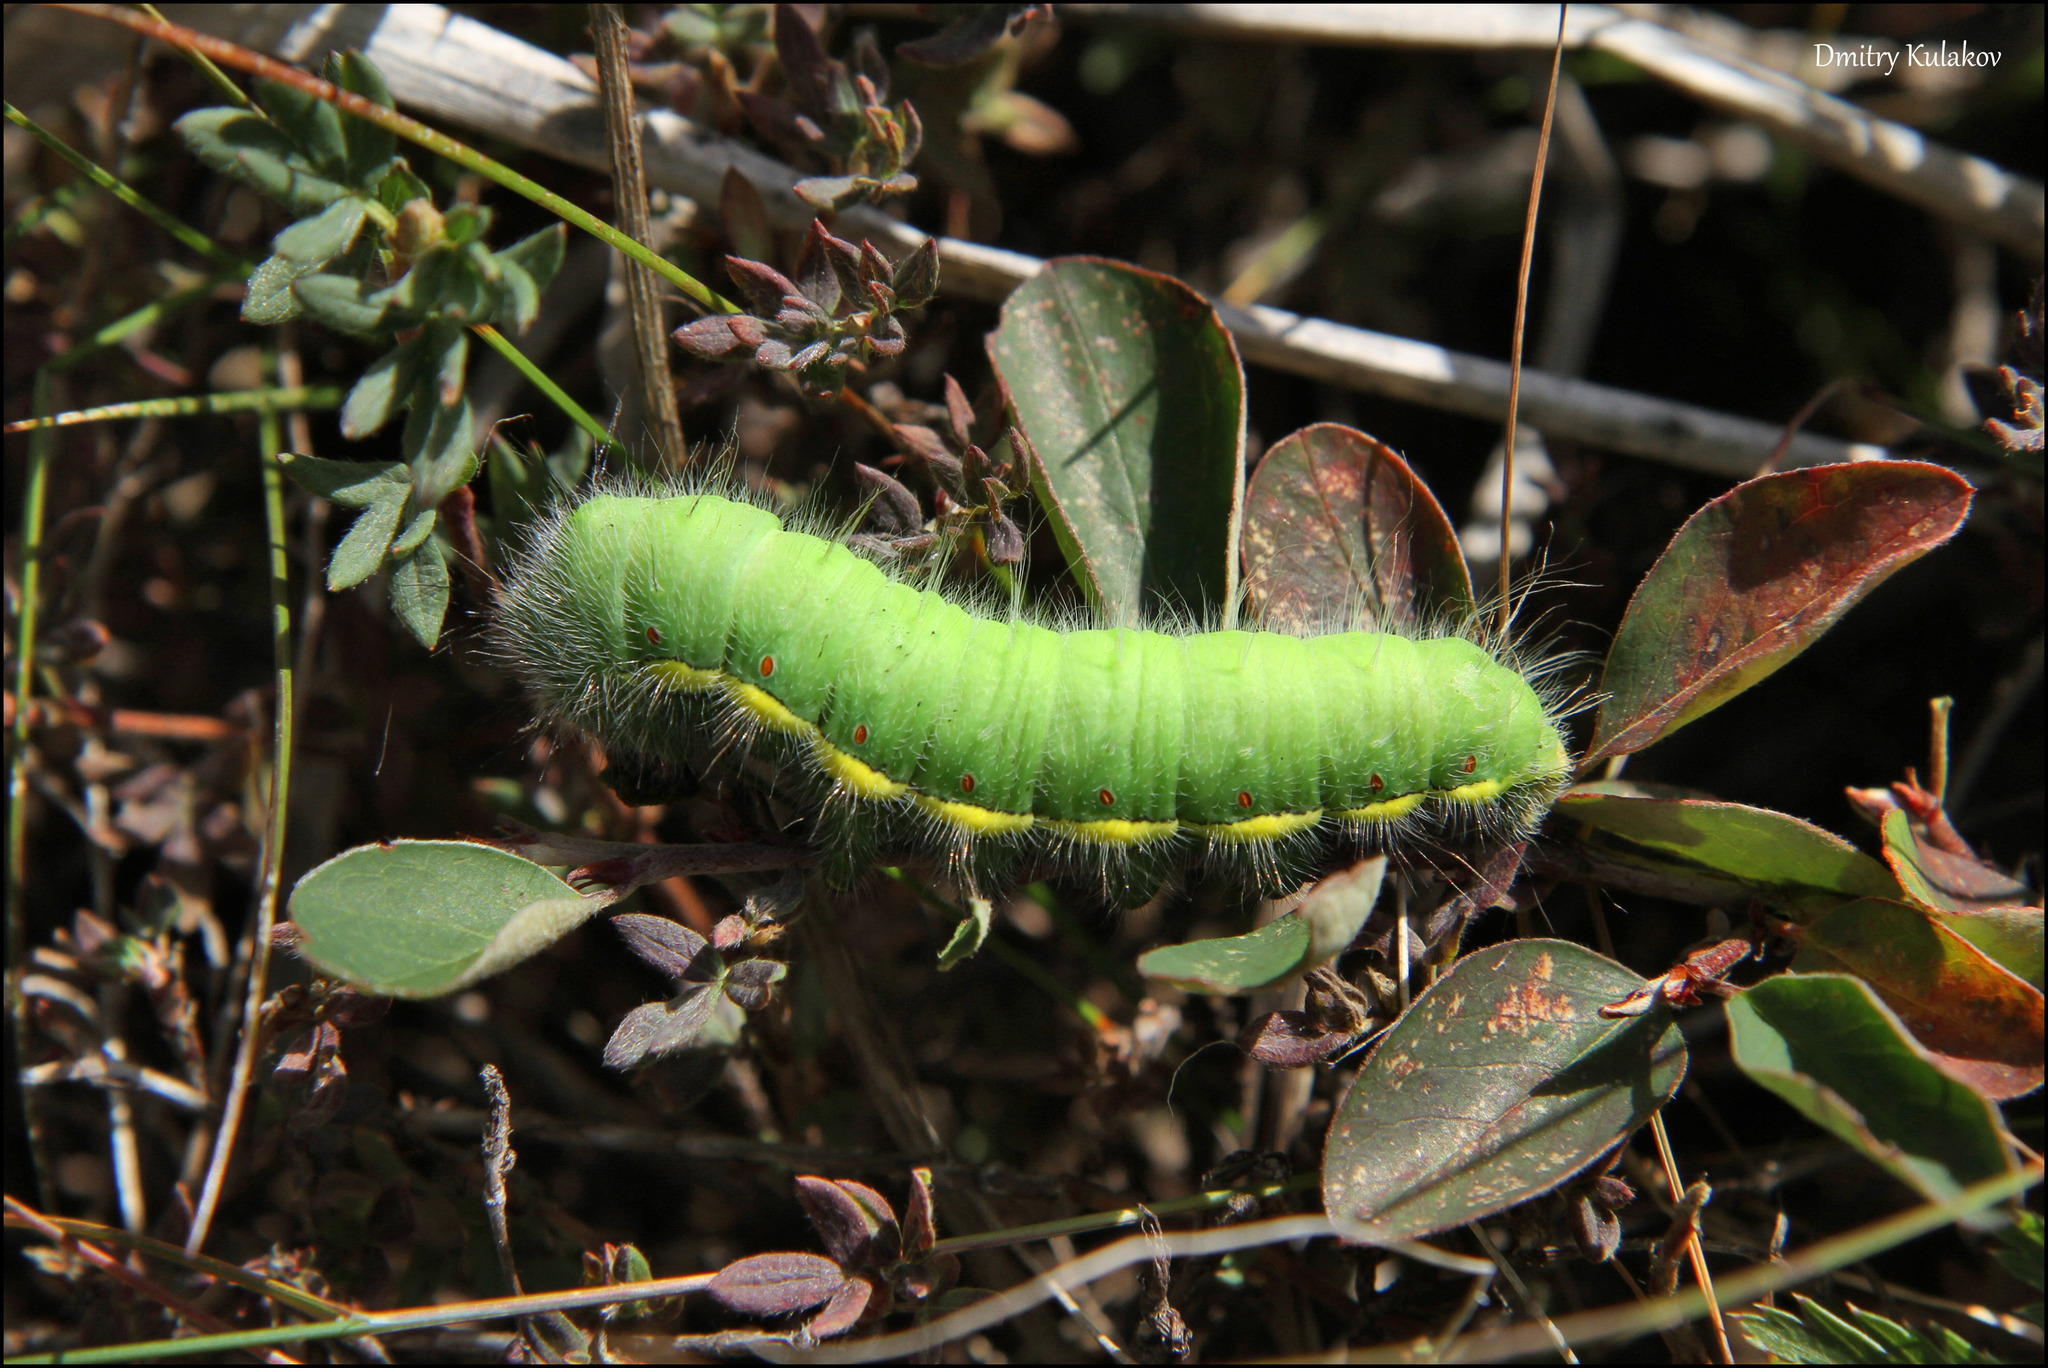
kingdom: Animalia
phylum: Arthropoda
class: Insecta
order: Lepidoptera
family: Saturniidae
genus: Neoris
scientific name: Neoris
